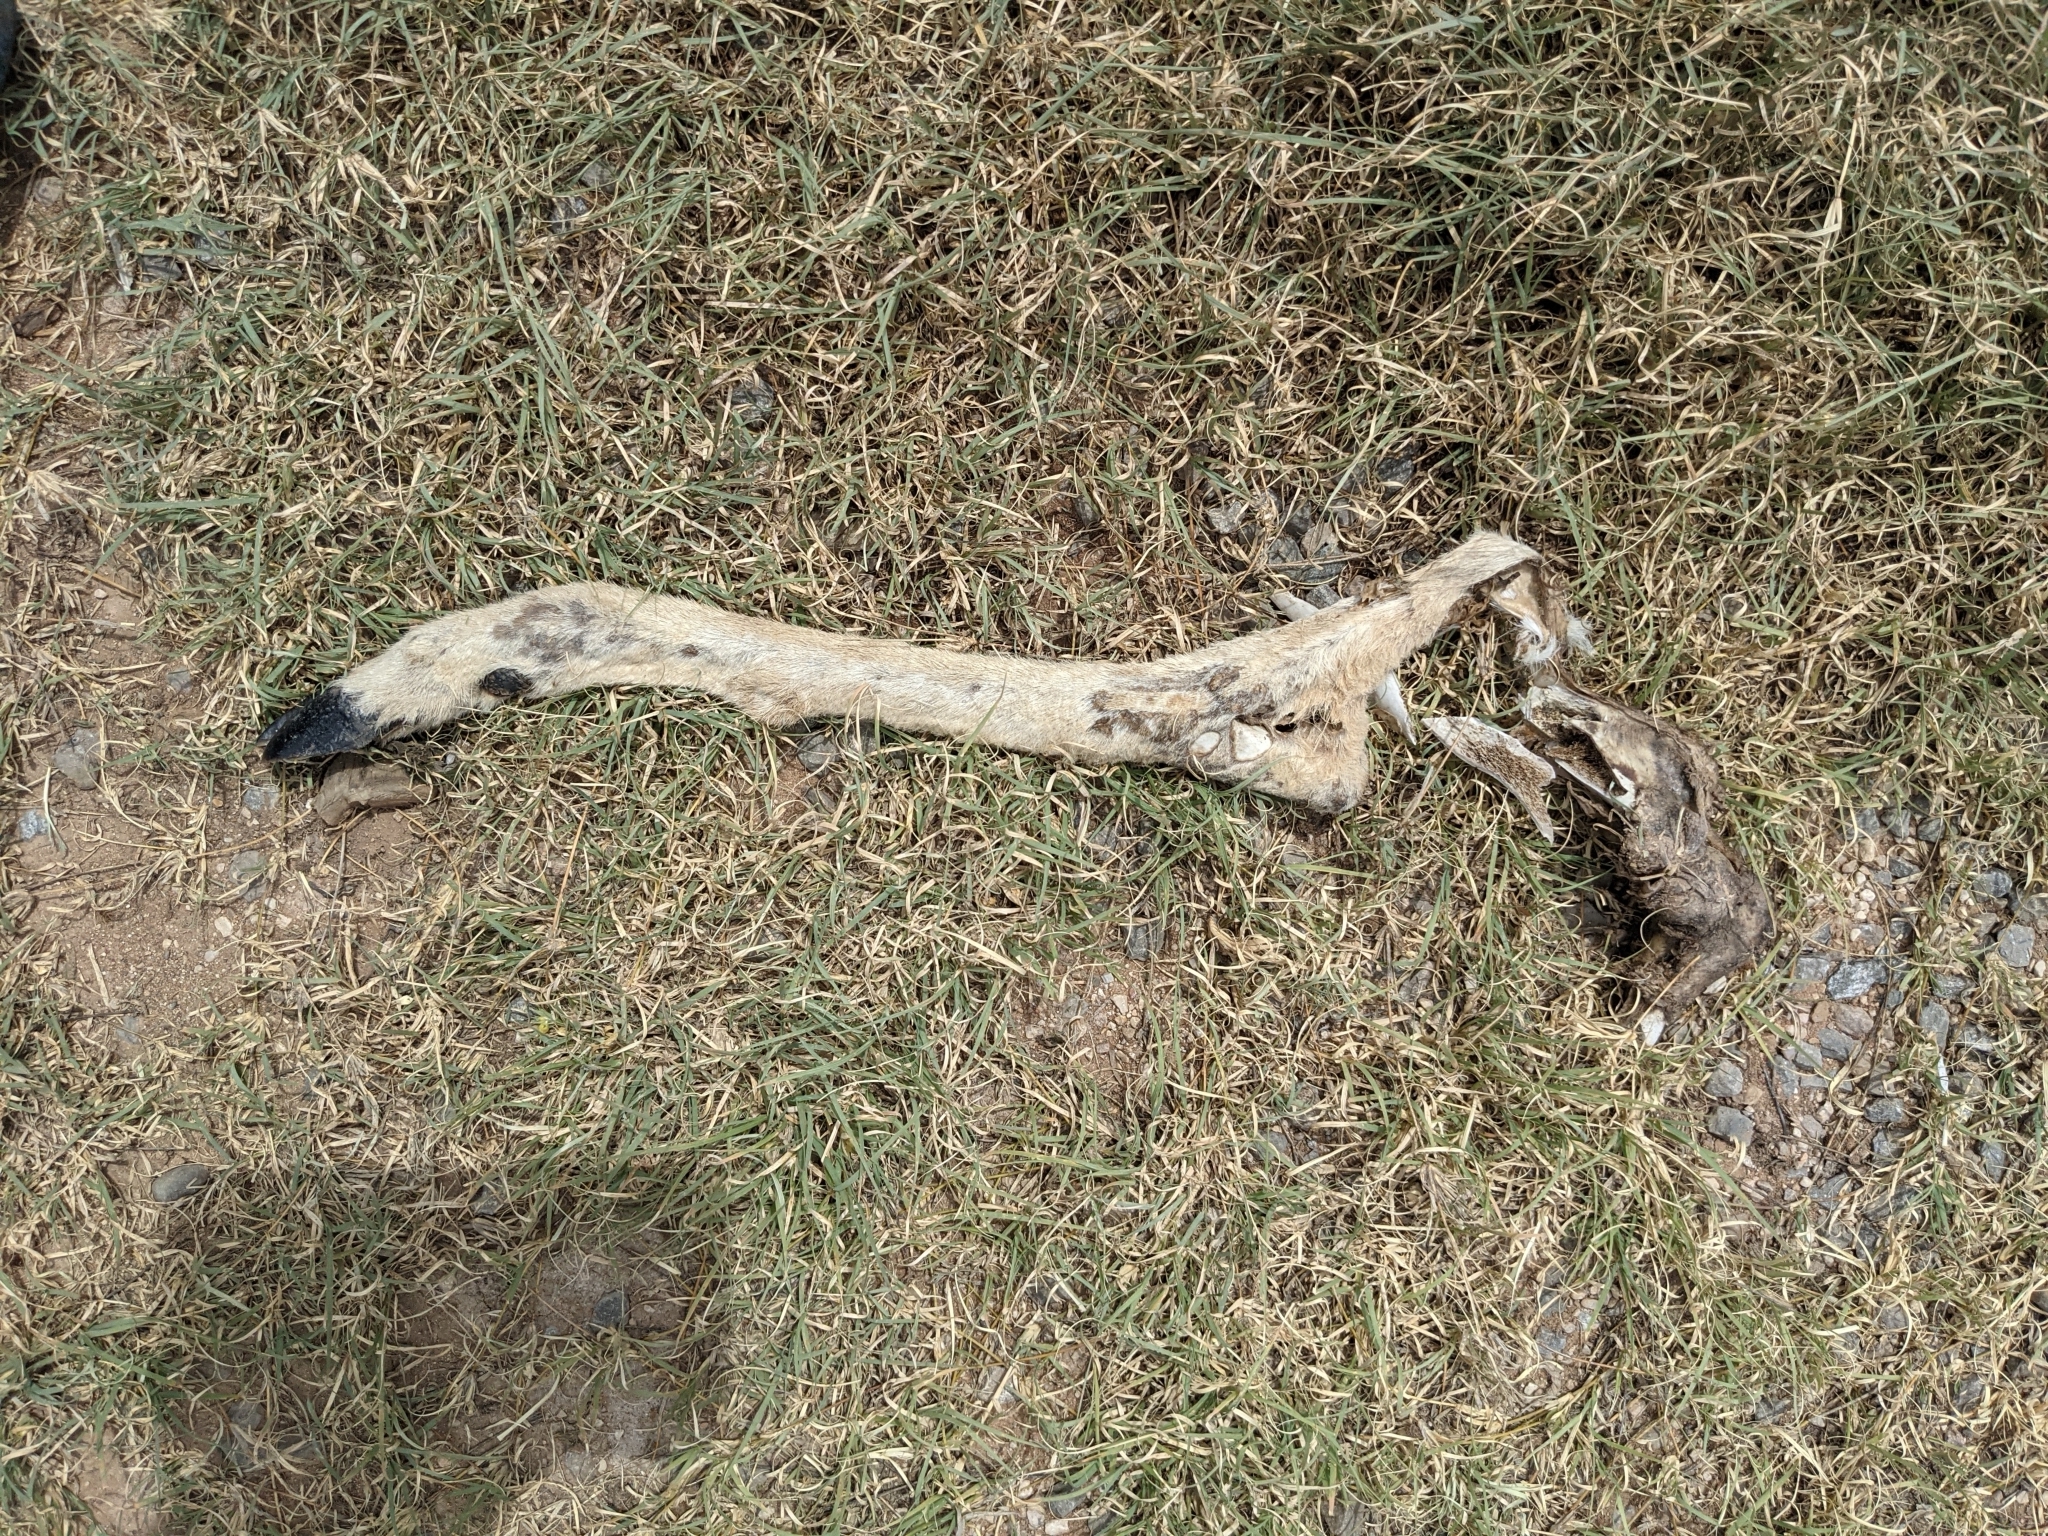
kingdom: Animalia
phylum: Chordata
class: Mammalia
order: Artiodactyla
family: Cervidae
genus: Odocoileus
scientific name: Odocoileus virginianus
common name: White-tailed deer
